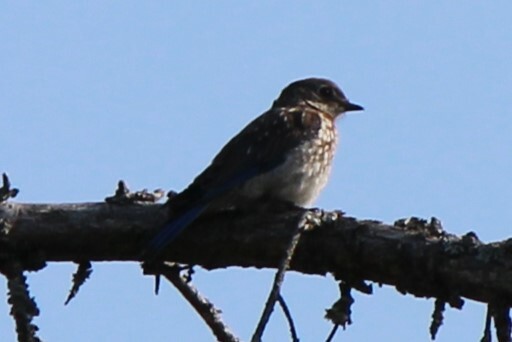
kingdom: Animalia
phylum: Chordata
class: Aves
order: Passeriformes
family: Turdidae
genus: Sialia
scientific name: Sialia sialis
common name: Eastern bluebird
